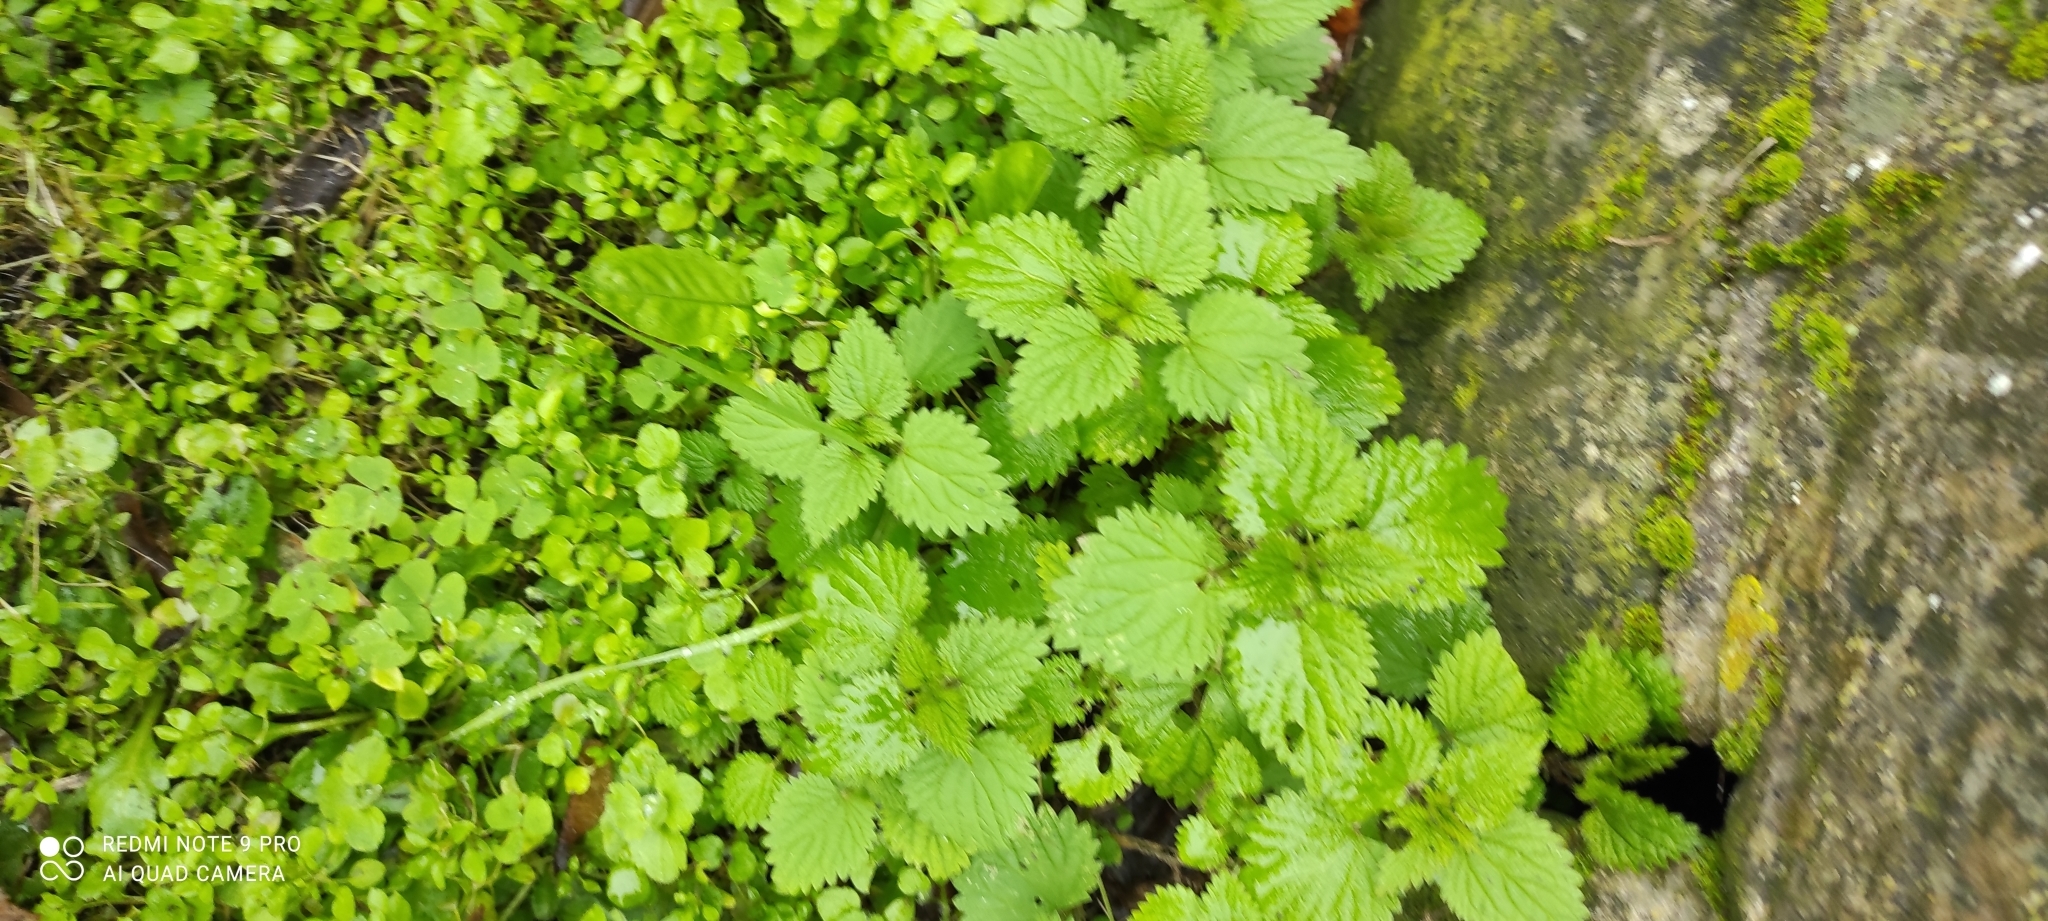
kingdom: Plantae
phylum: Tracheophyta
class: Magnoliopsida
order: Rosales
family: Urticaceae
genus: Urtica
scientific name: Urtica dioica
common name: Common nettle
